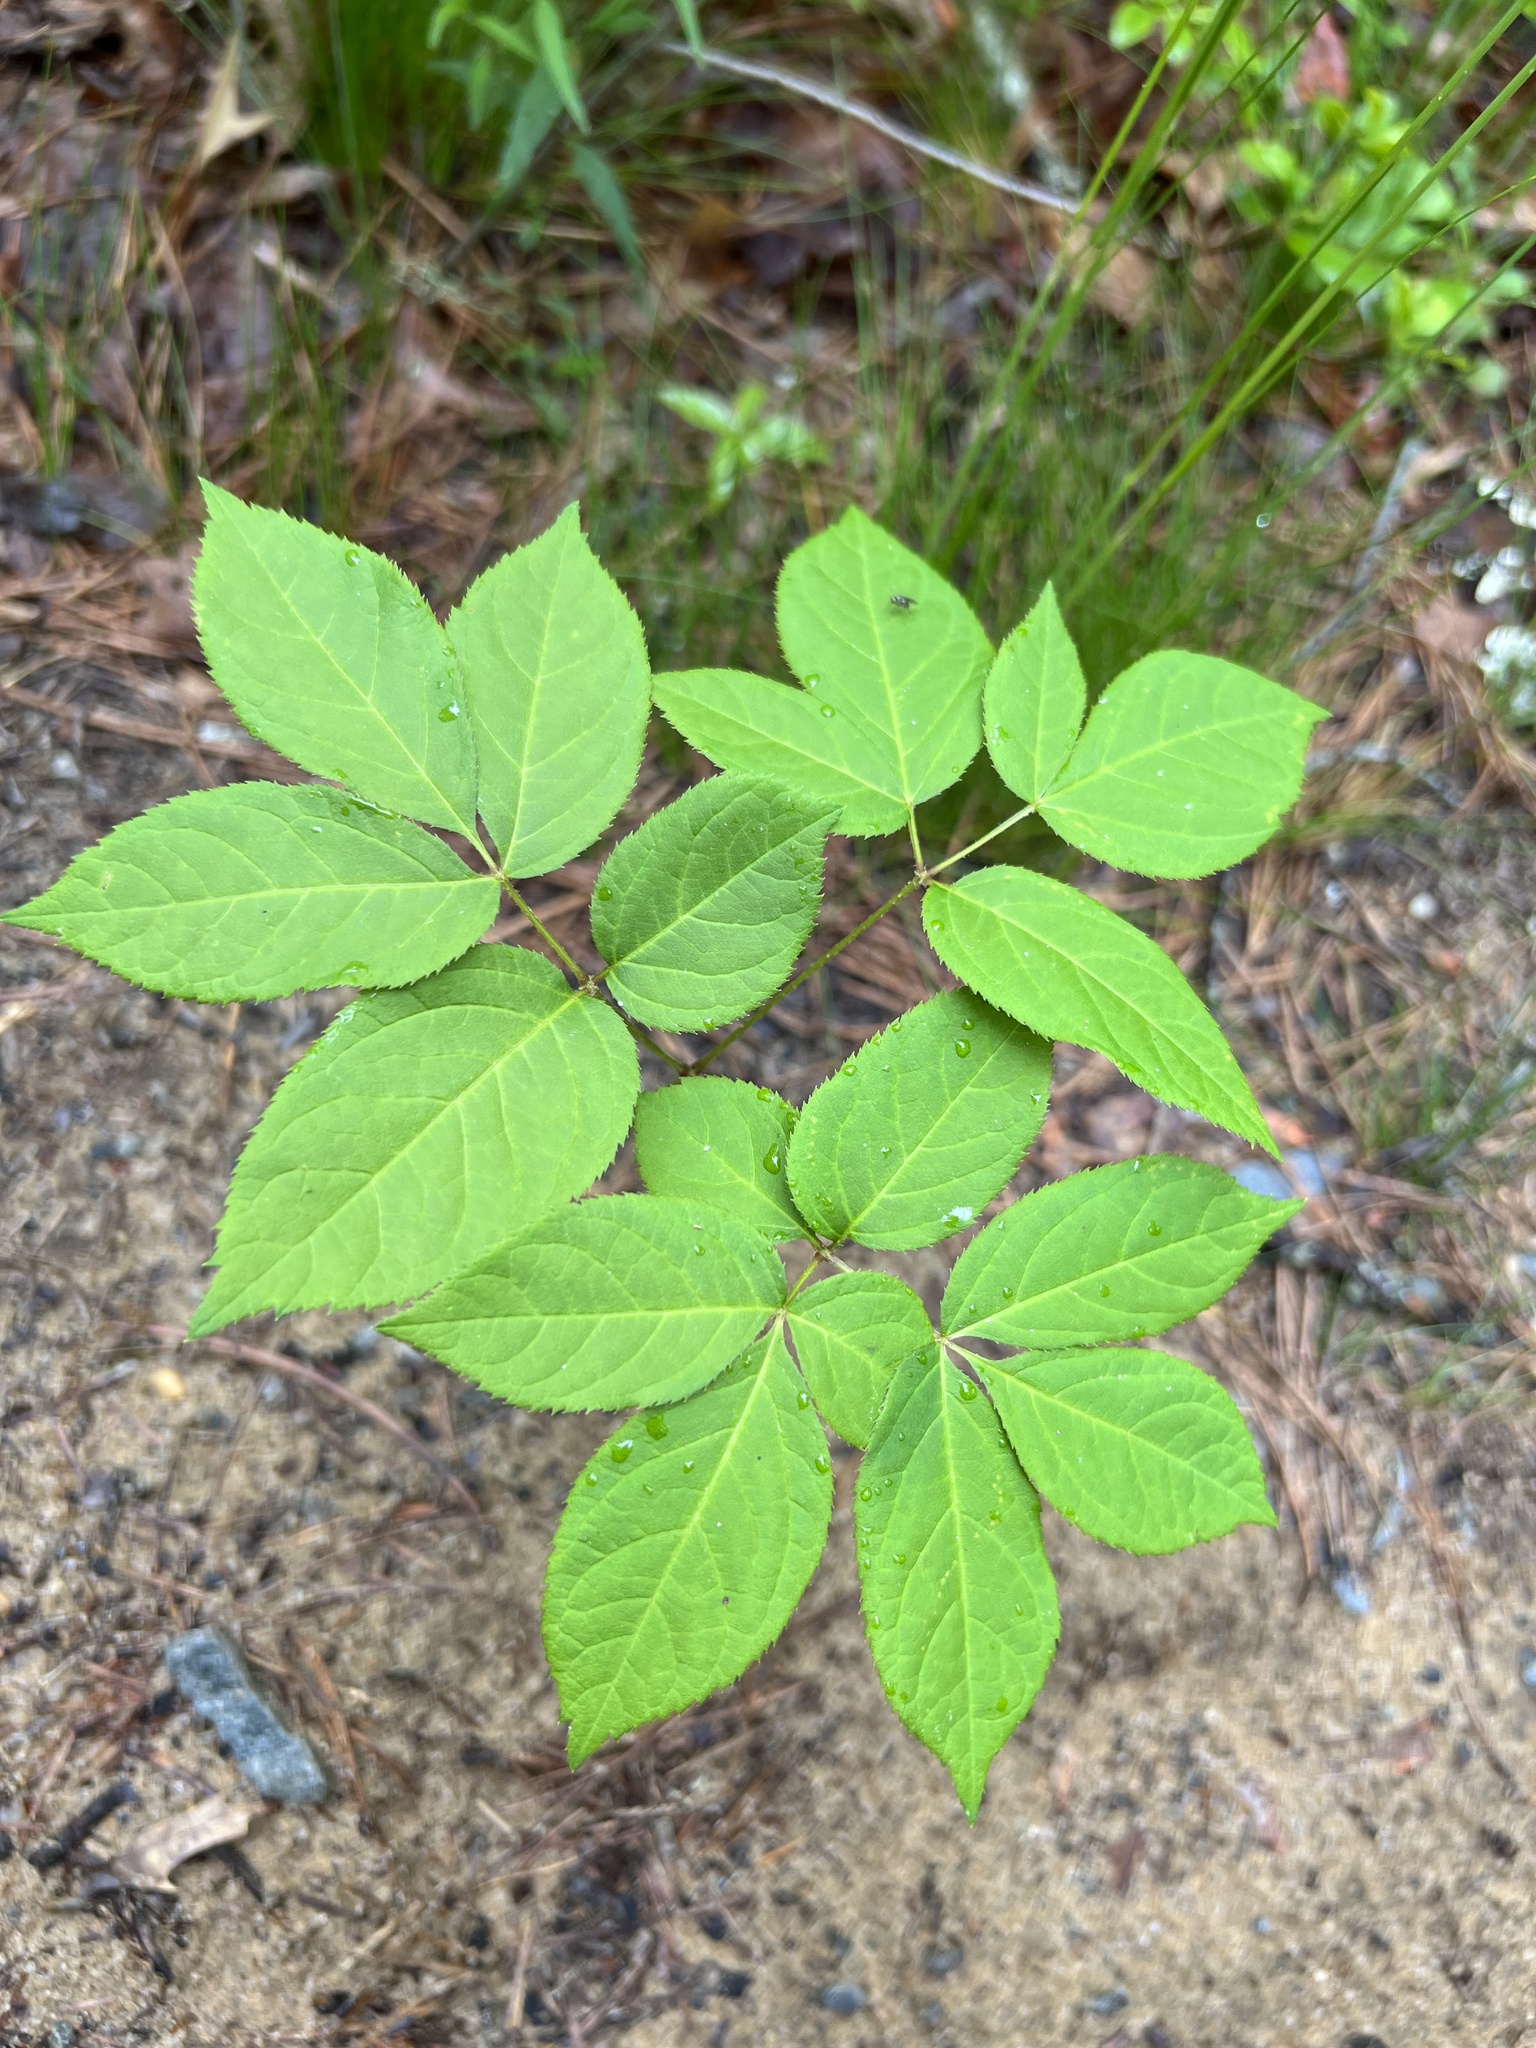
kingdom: Plantae
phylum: Tracheophyta
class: Magnoliopsida
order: Apiales
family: Araliaceae
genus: Aralia
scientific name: Aralia nudicaulis
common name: Wild sarsaparilla
